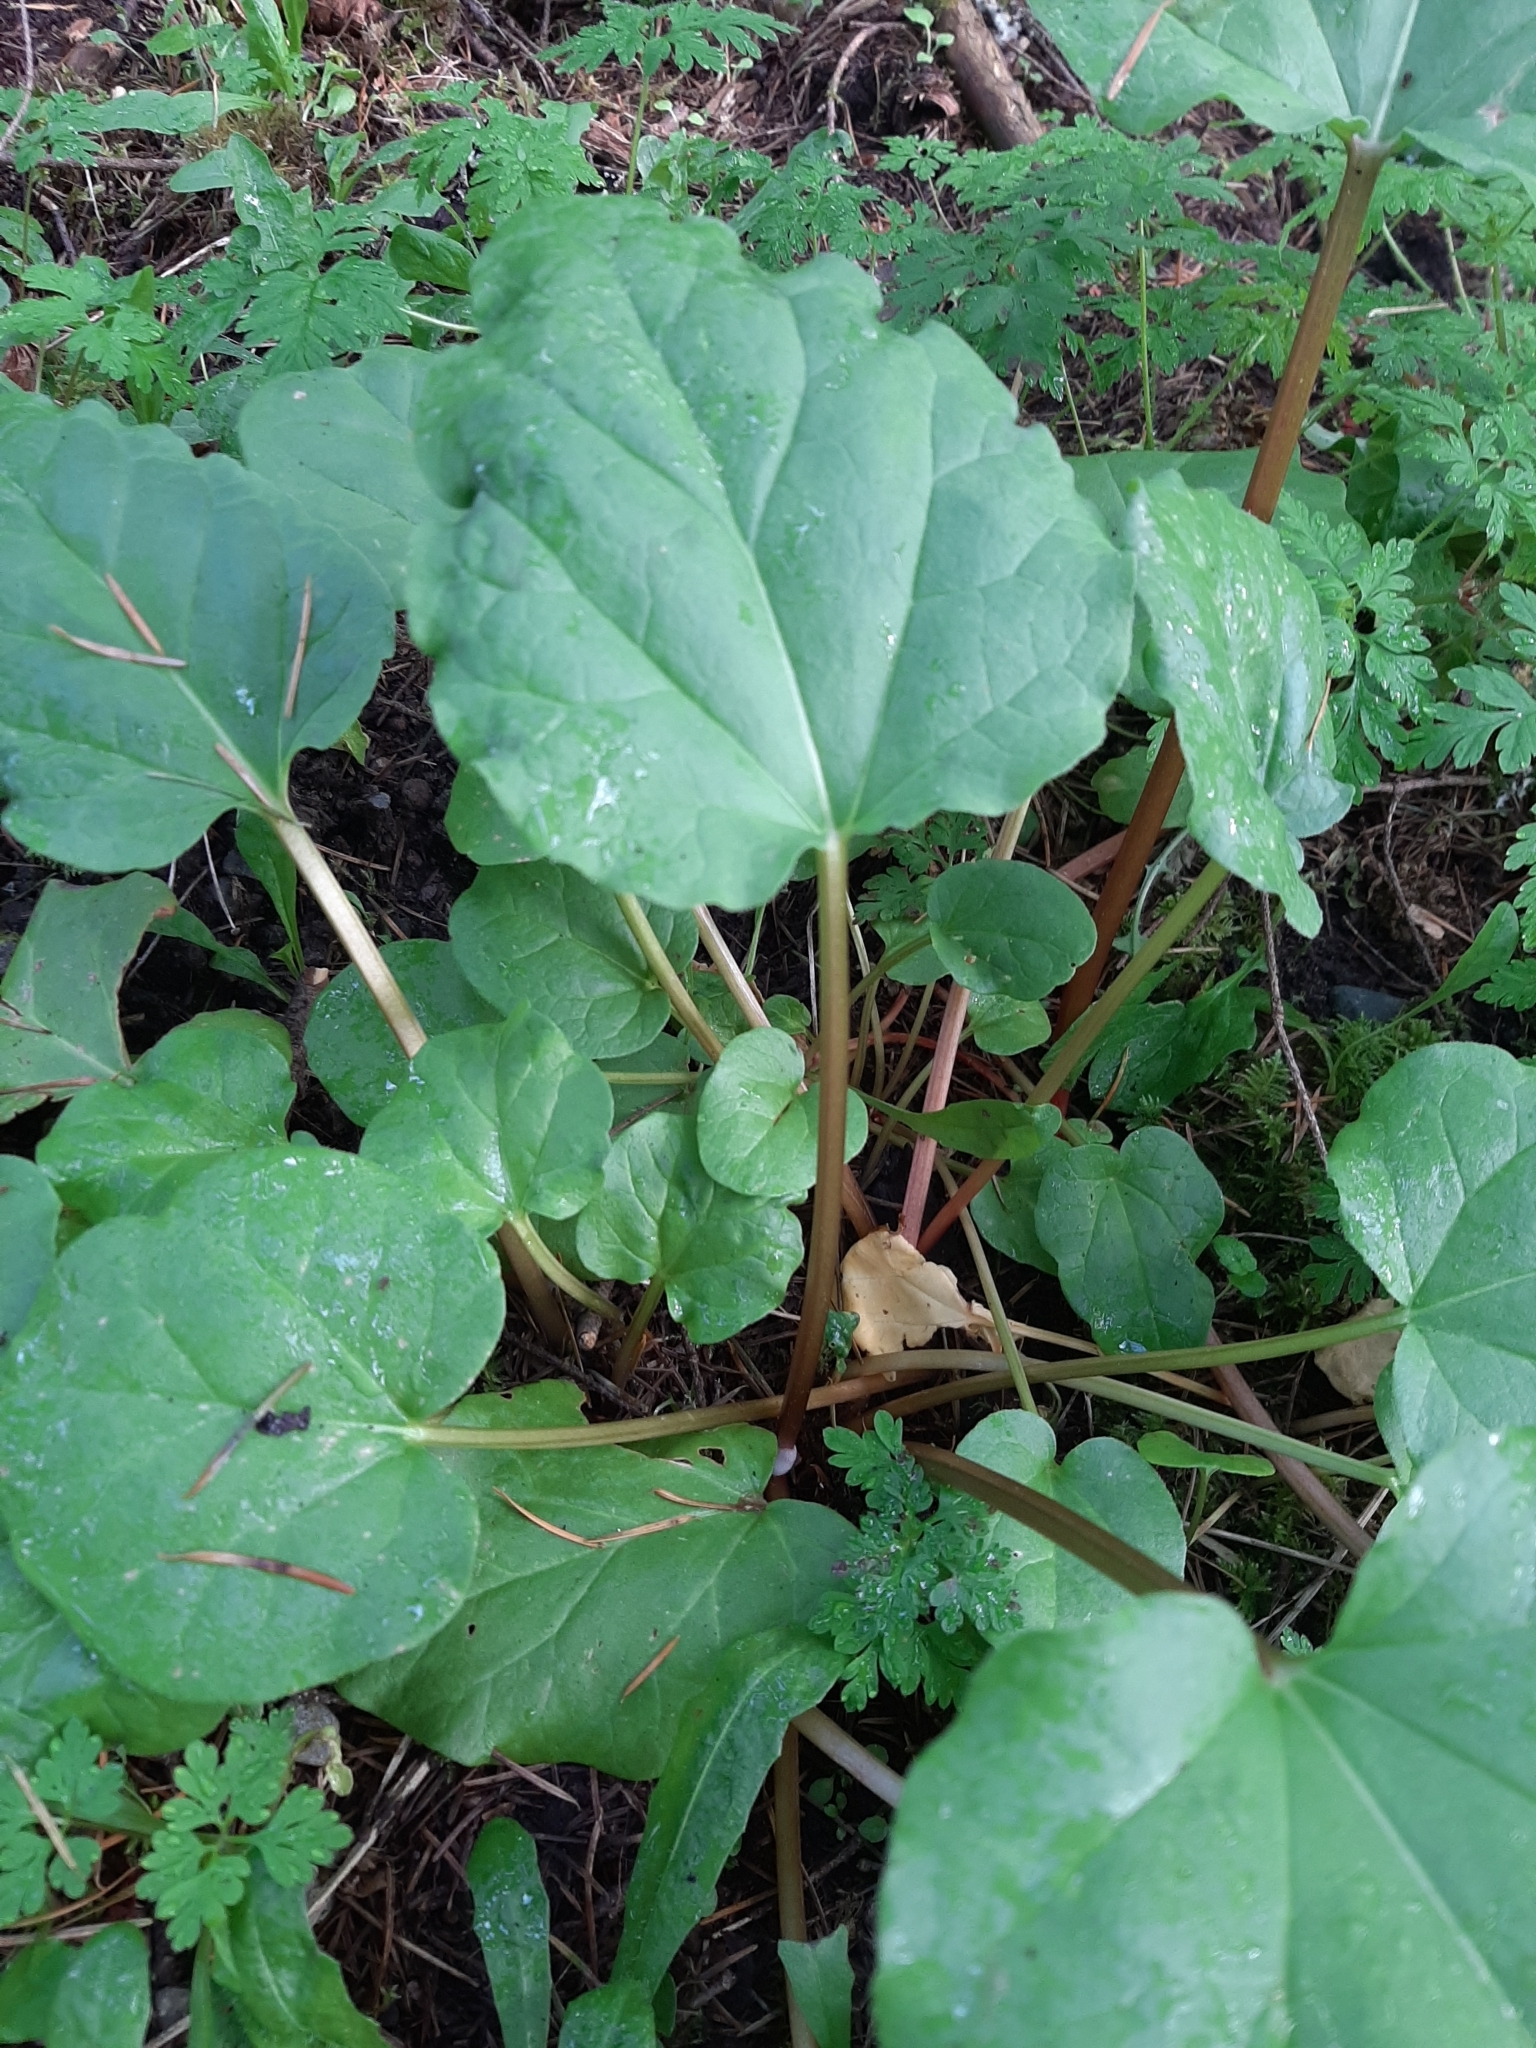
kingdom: Plantae
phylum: Tracheophyta
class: Magnoliopsida
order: Caryophyllales
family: Polygonaceae
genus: Rheum
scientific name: Rheum rhabarbarum
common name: Garden rhubarb
